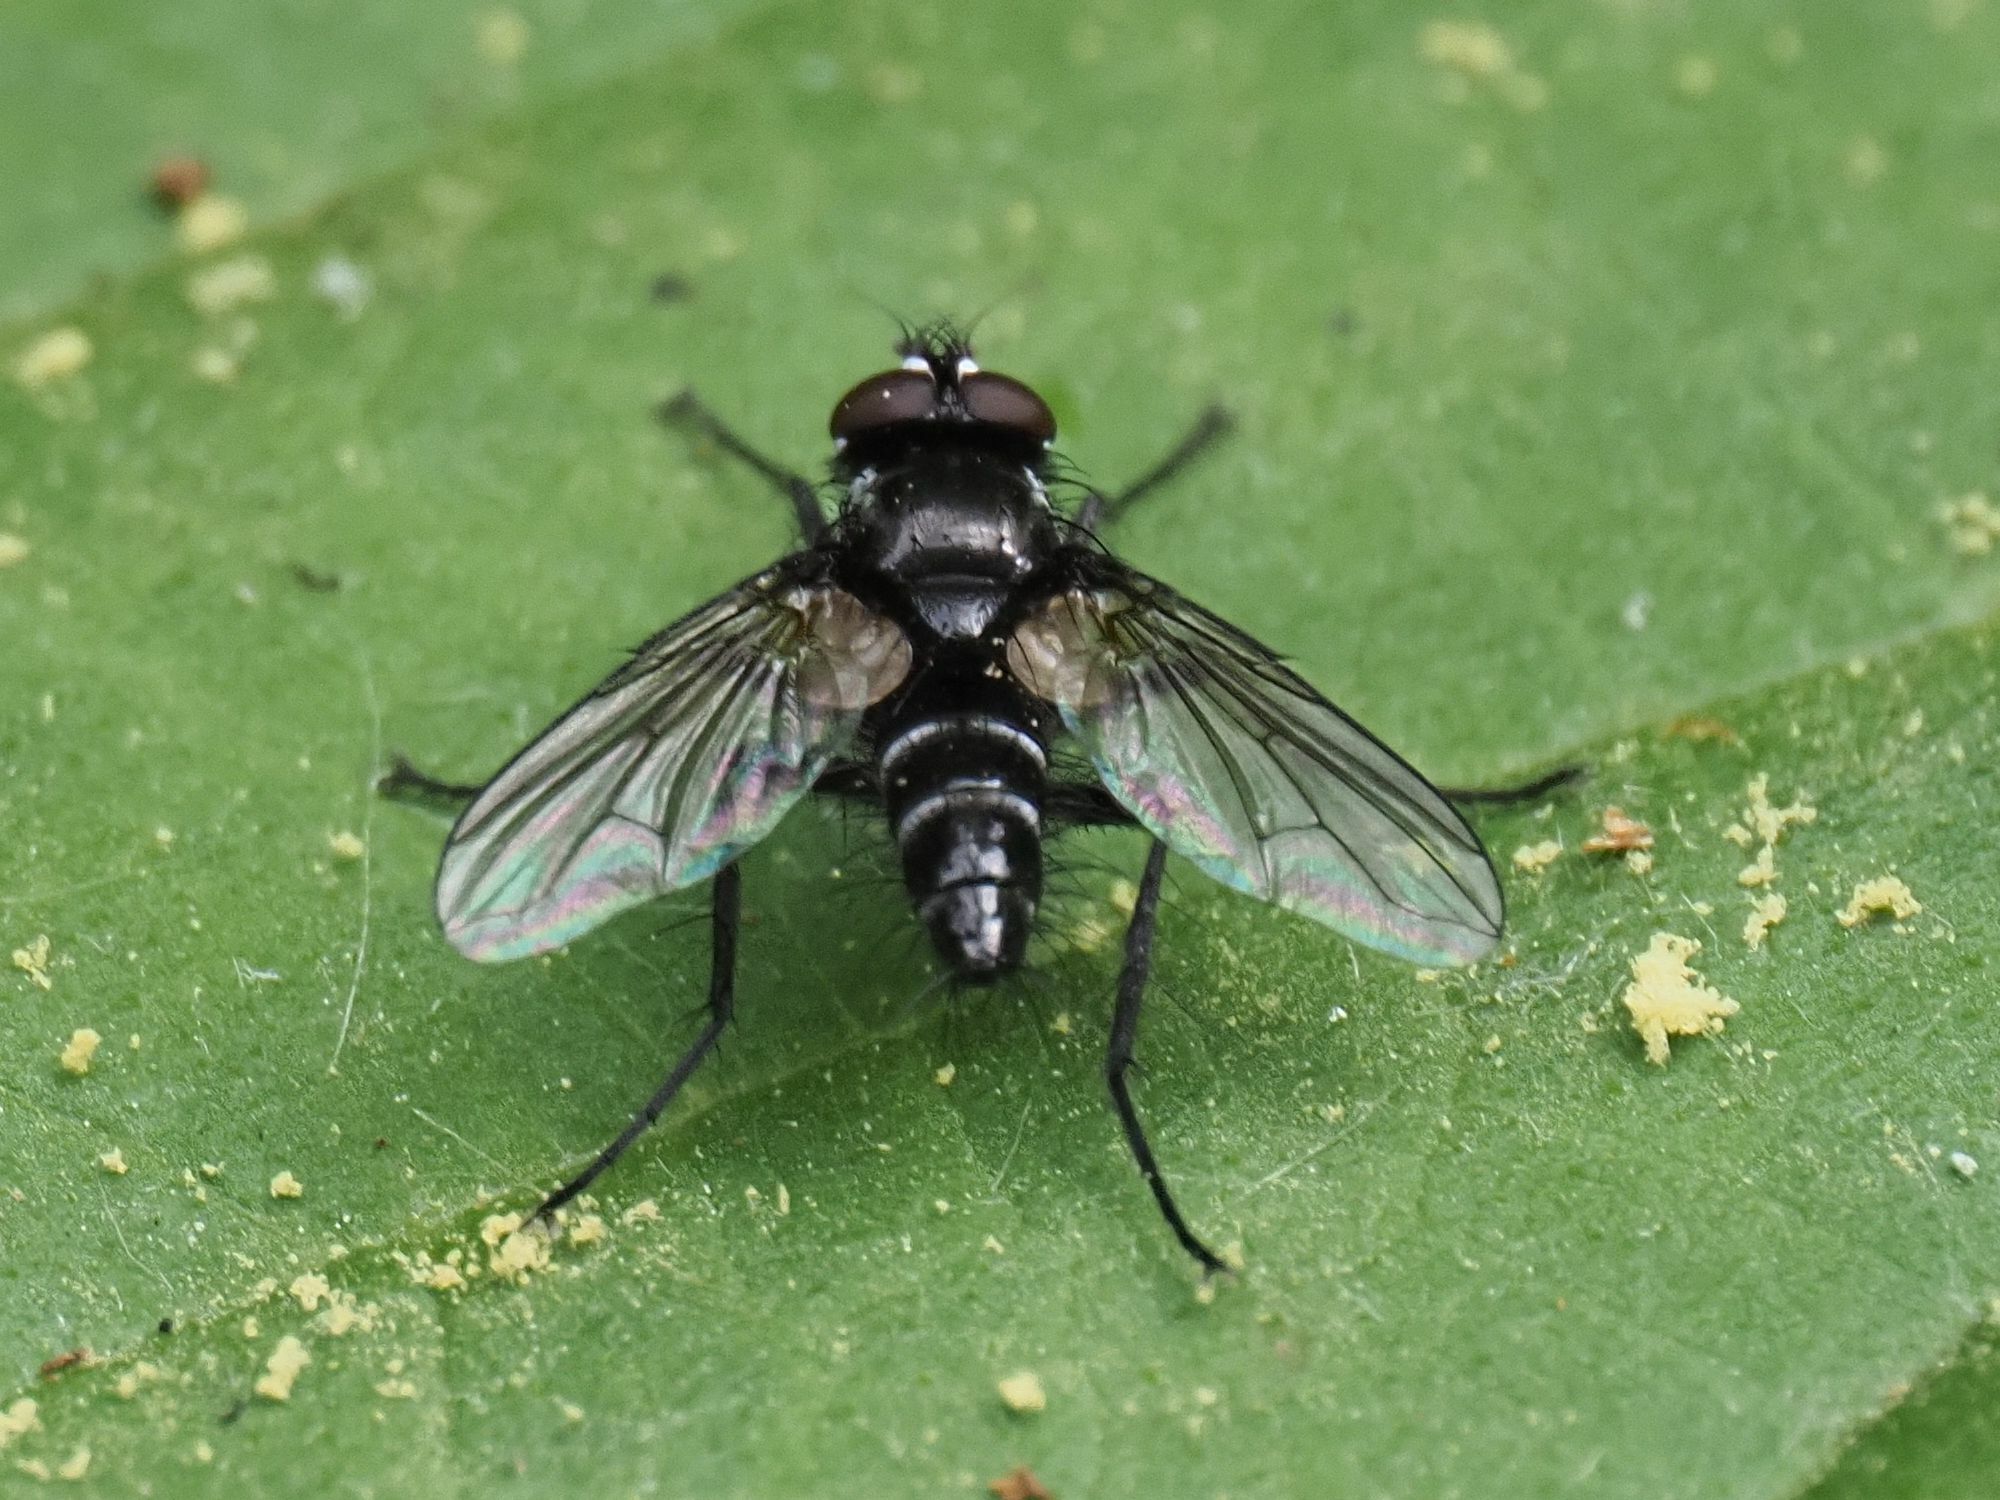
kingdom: Animalia
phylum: Arthropoda
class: Insecta
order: Diptera
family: Tachinidae
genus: Phyllomya
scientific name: Phyllomya volvulus
